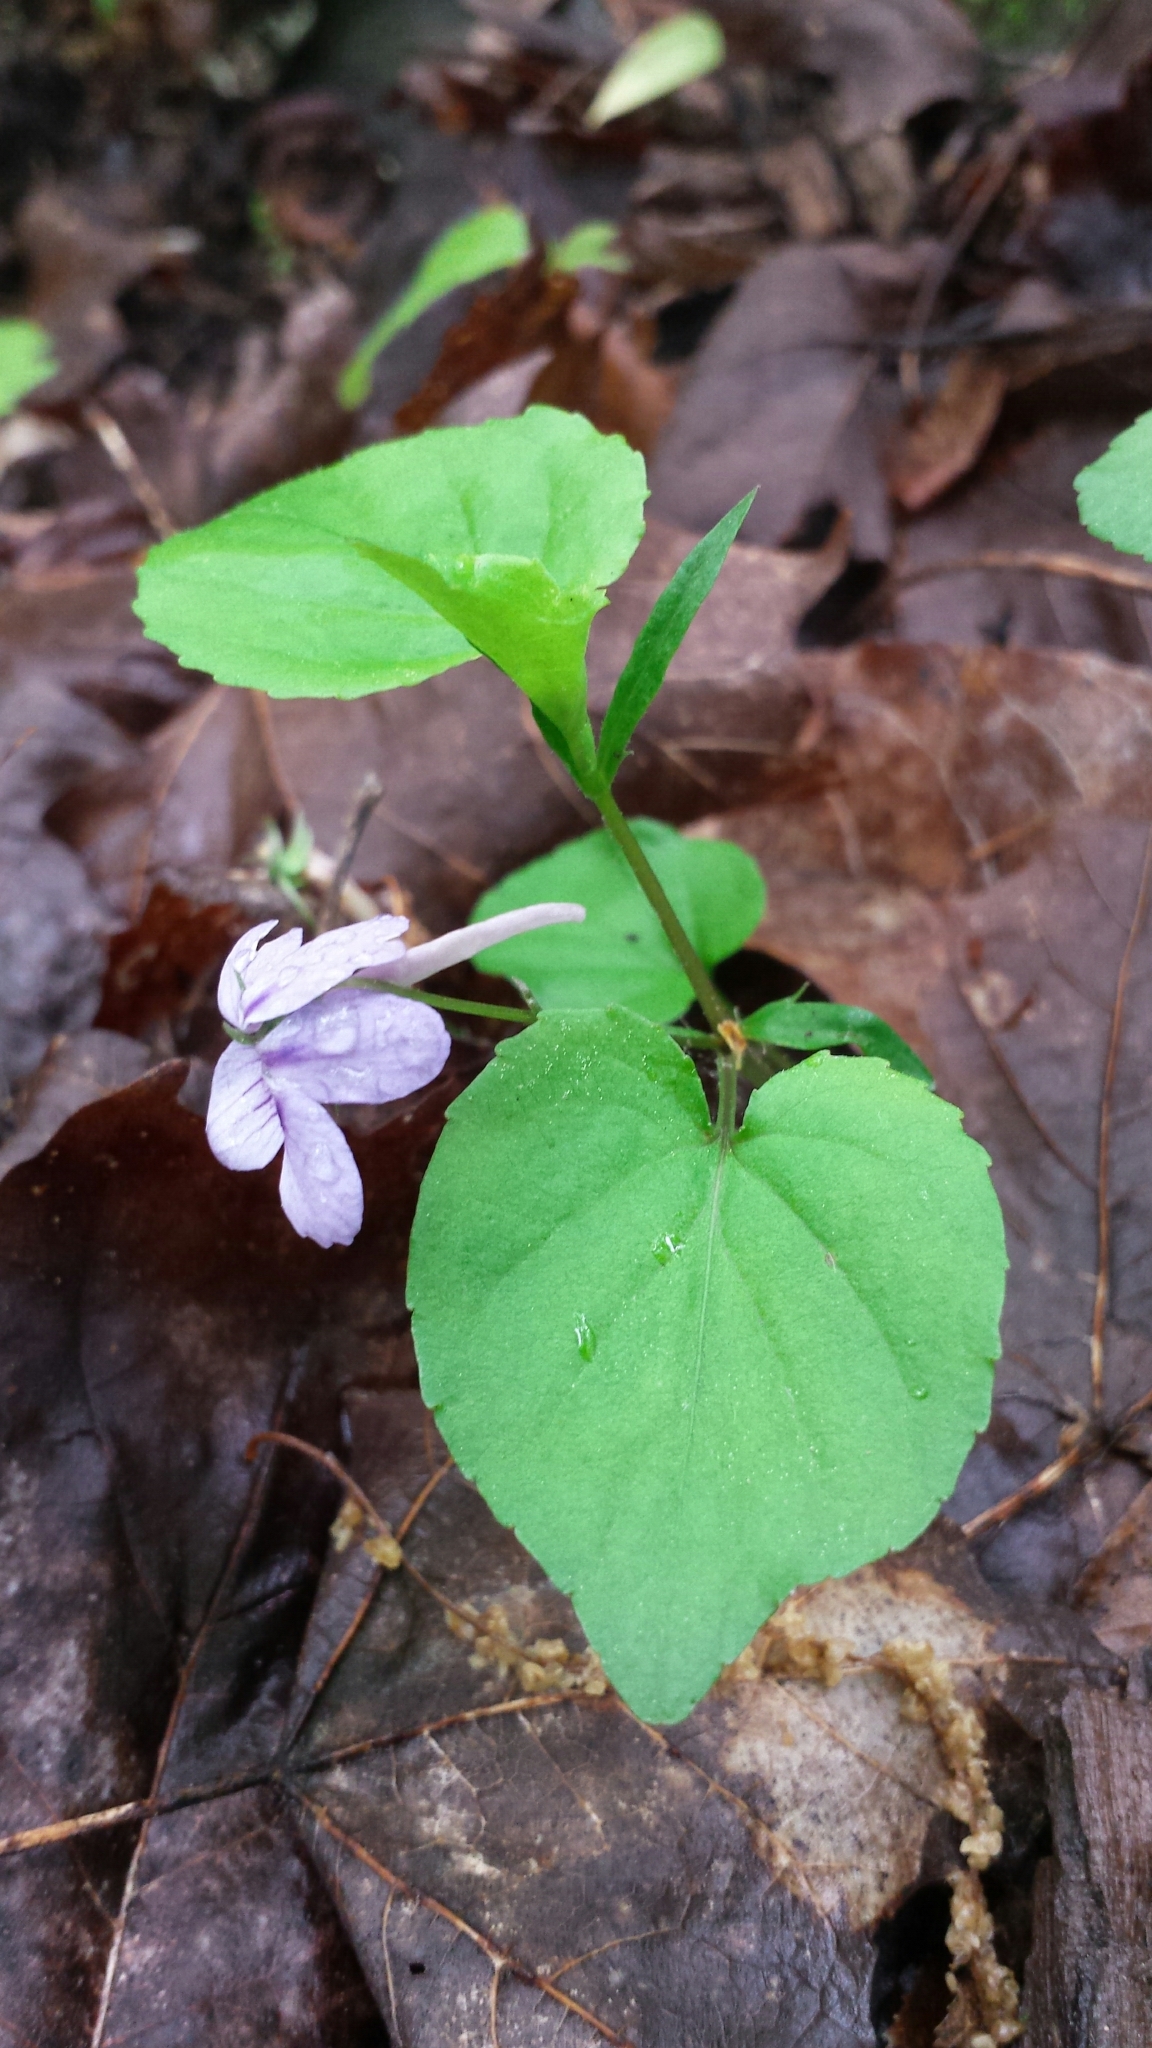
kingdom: Plantae
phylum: Tracheophyta
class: Magnoliopsida
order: Malpighiales
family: Violaceae
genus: Viola
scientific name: Viola rostrata
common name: Long-spur violet
